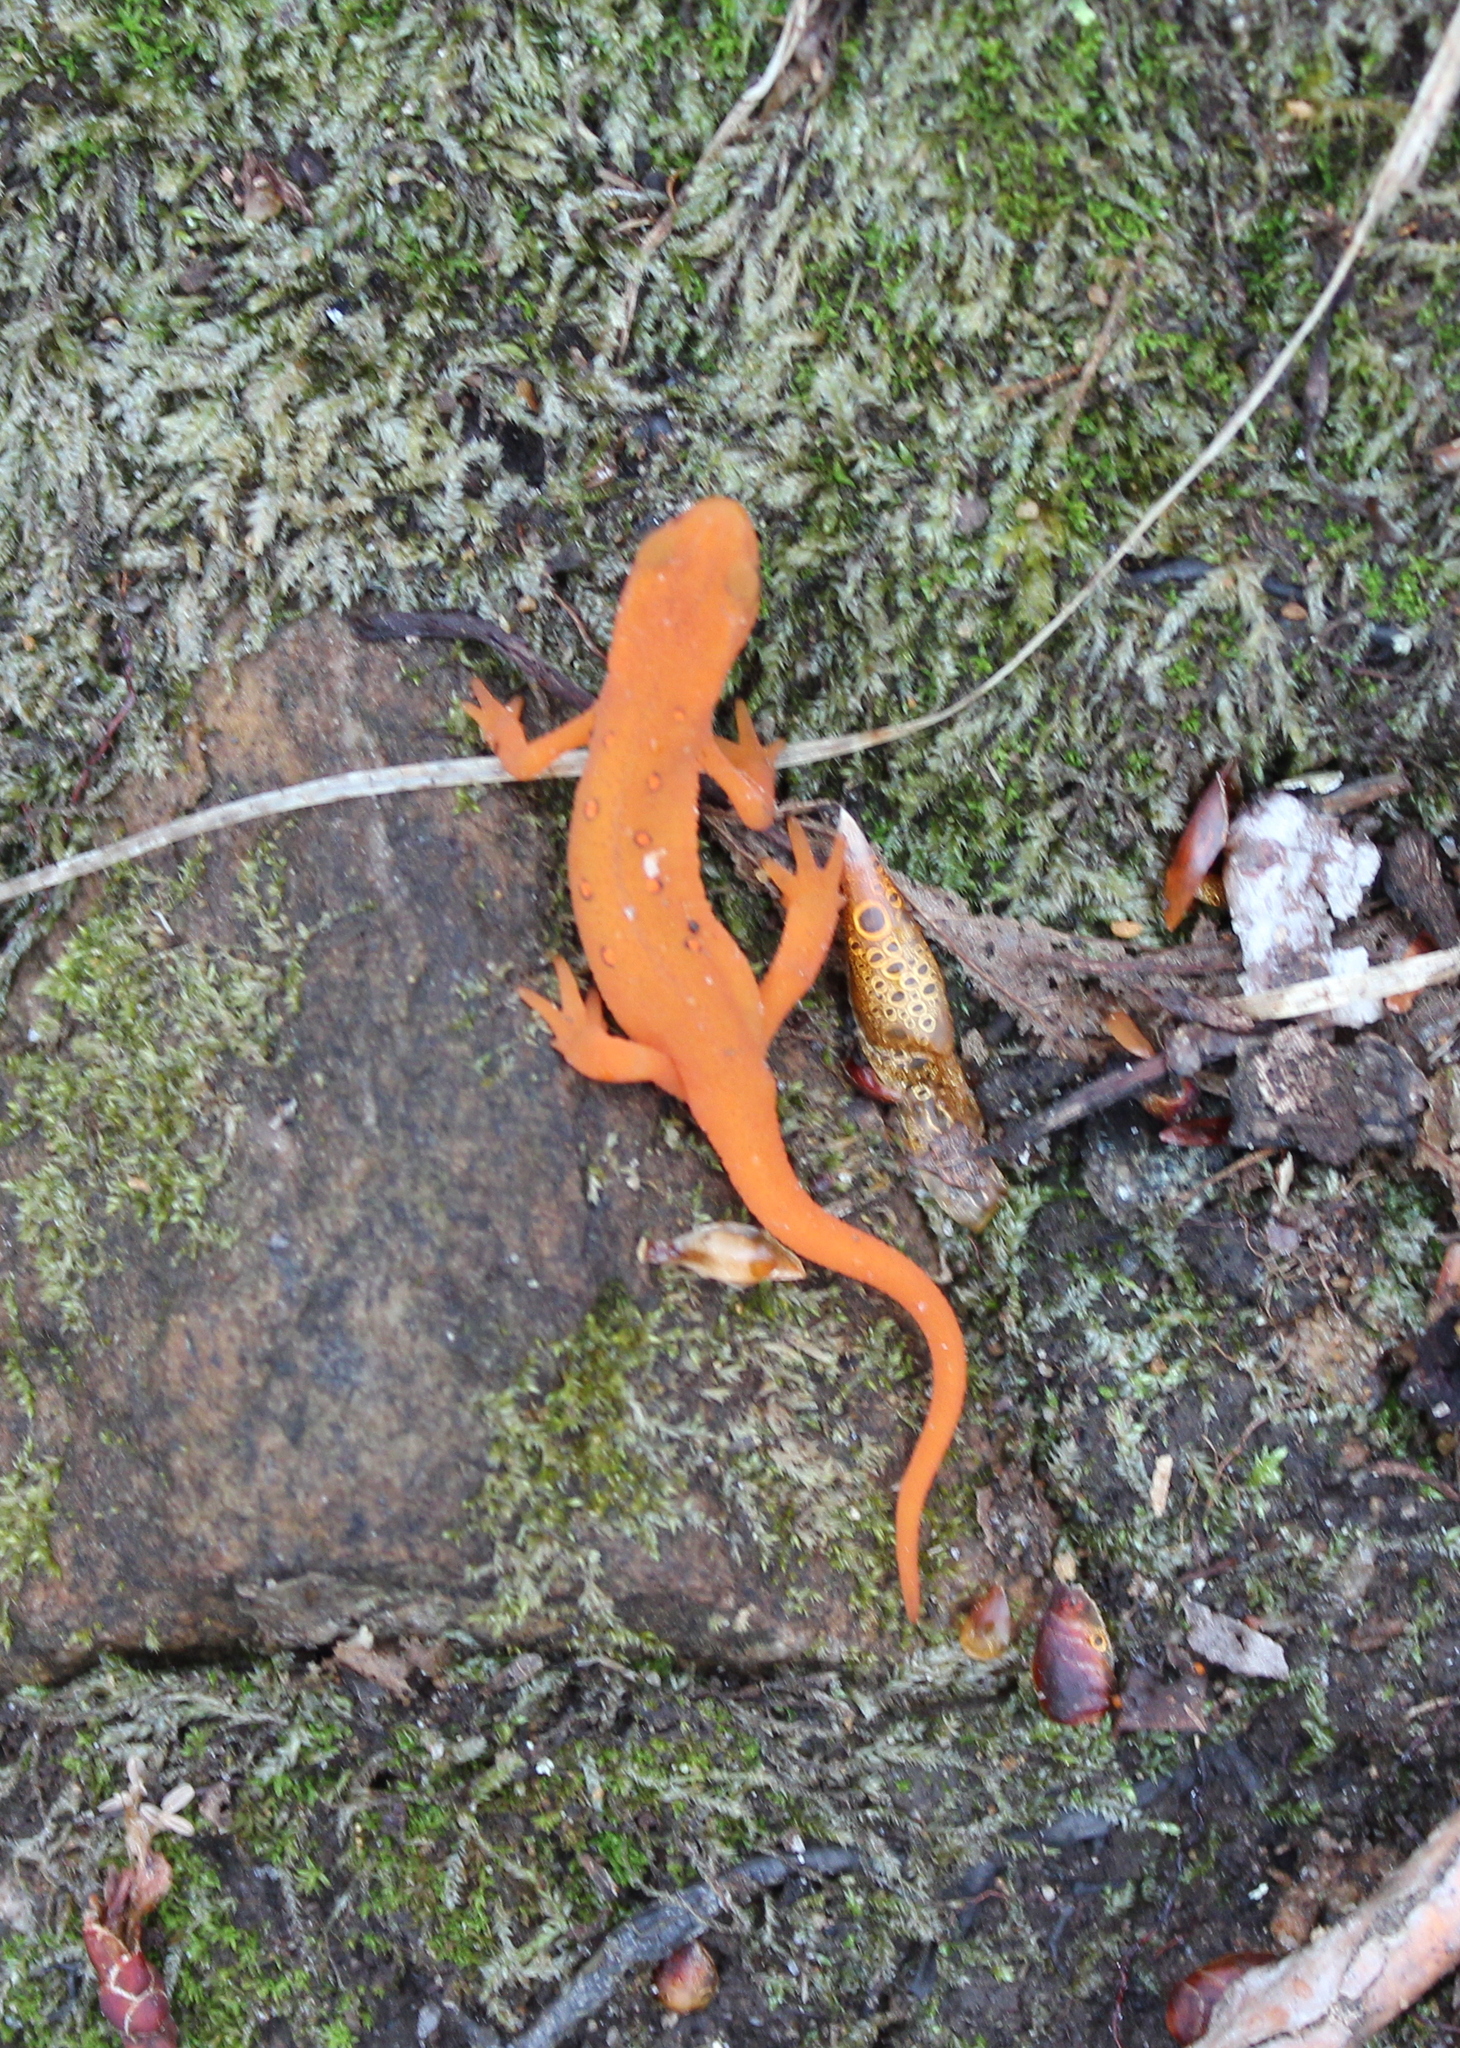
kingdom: Animalia
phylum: Chordata
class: Amphibia
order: Caudata
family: Salamandridae
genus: Notophthalmus
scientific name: Notophthalmus viridescens
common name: Eastern newt
